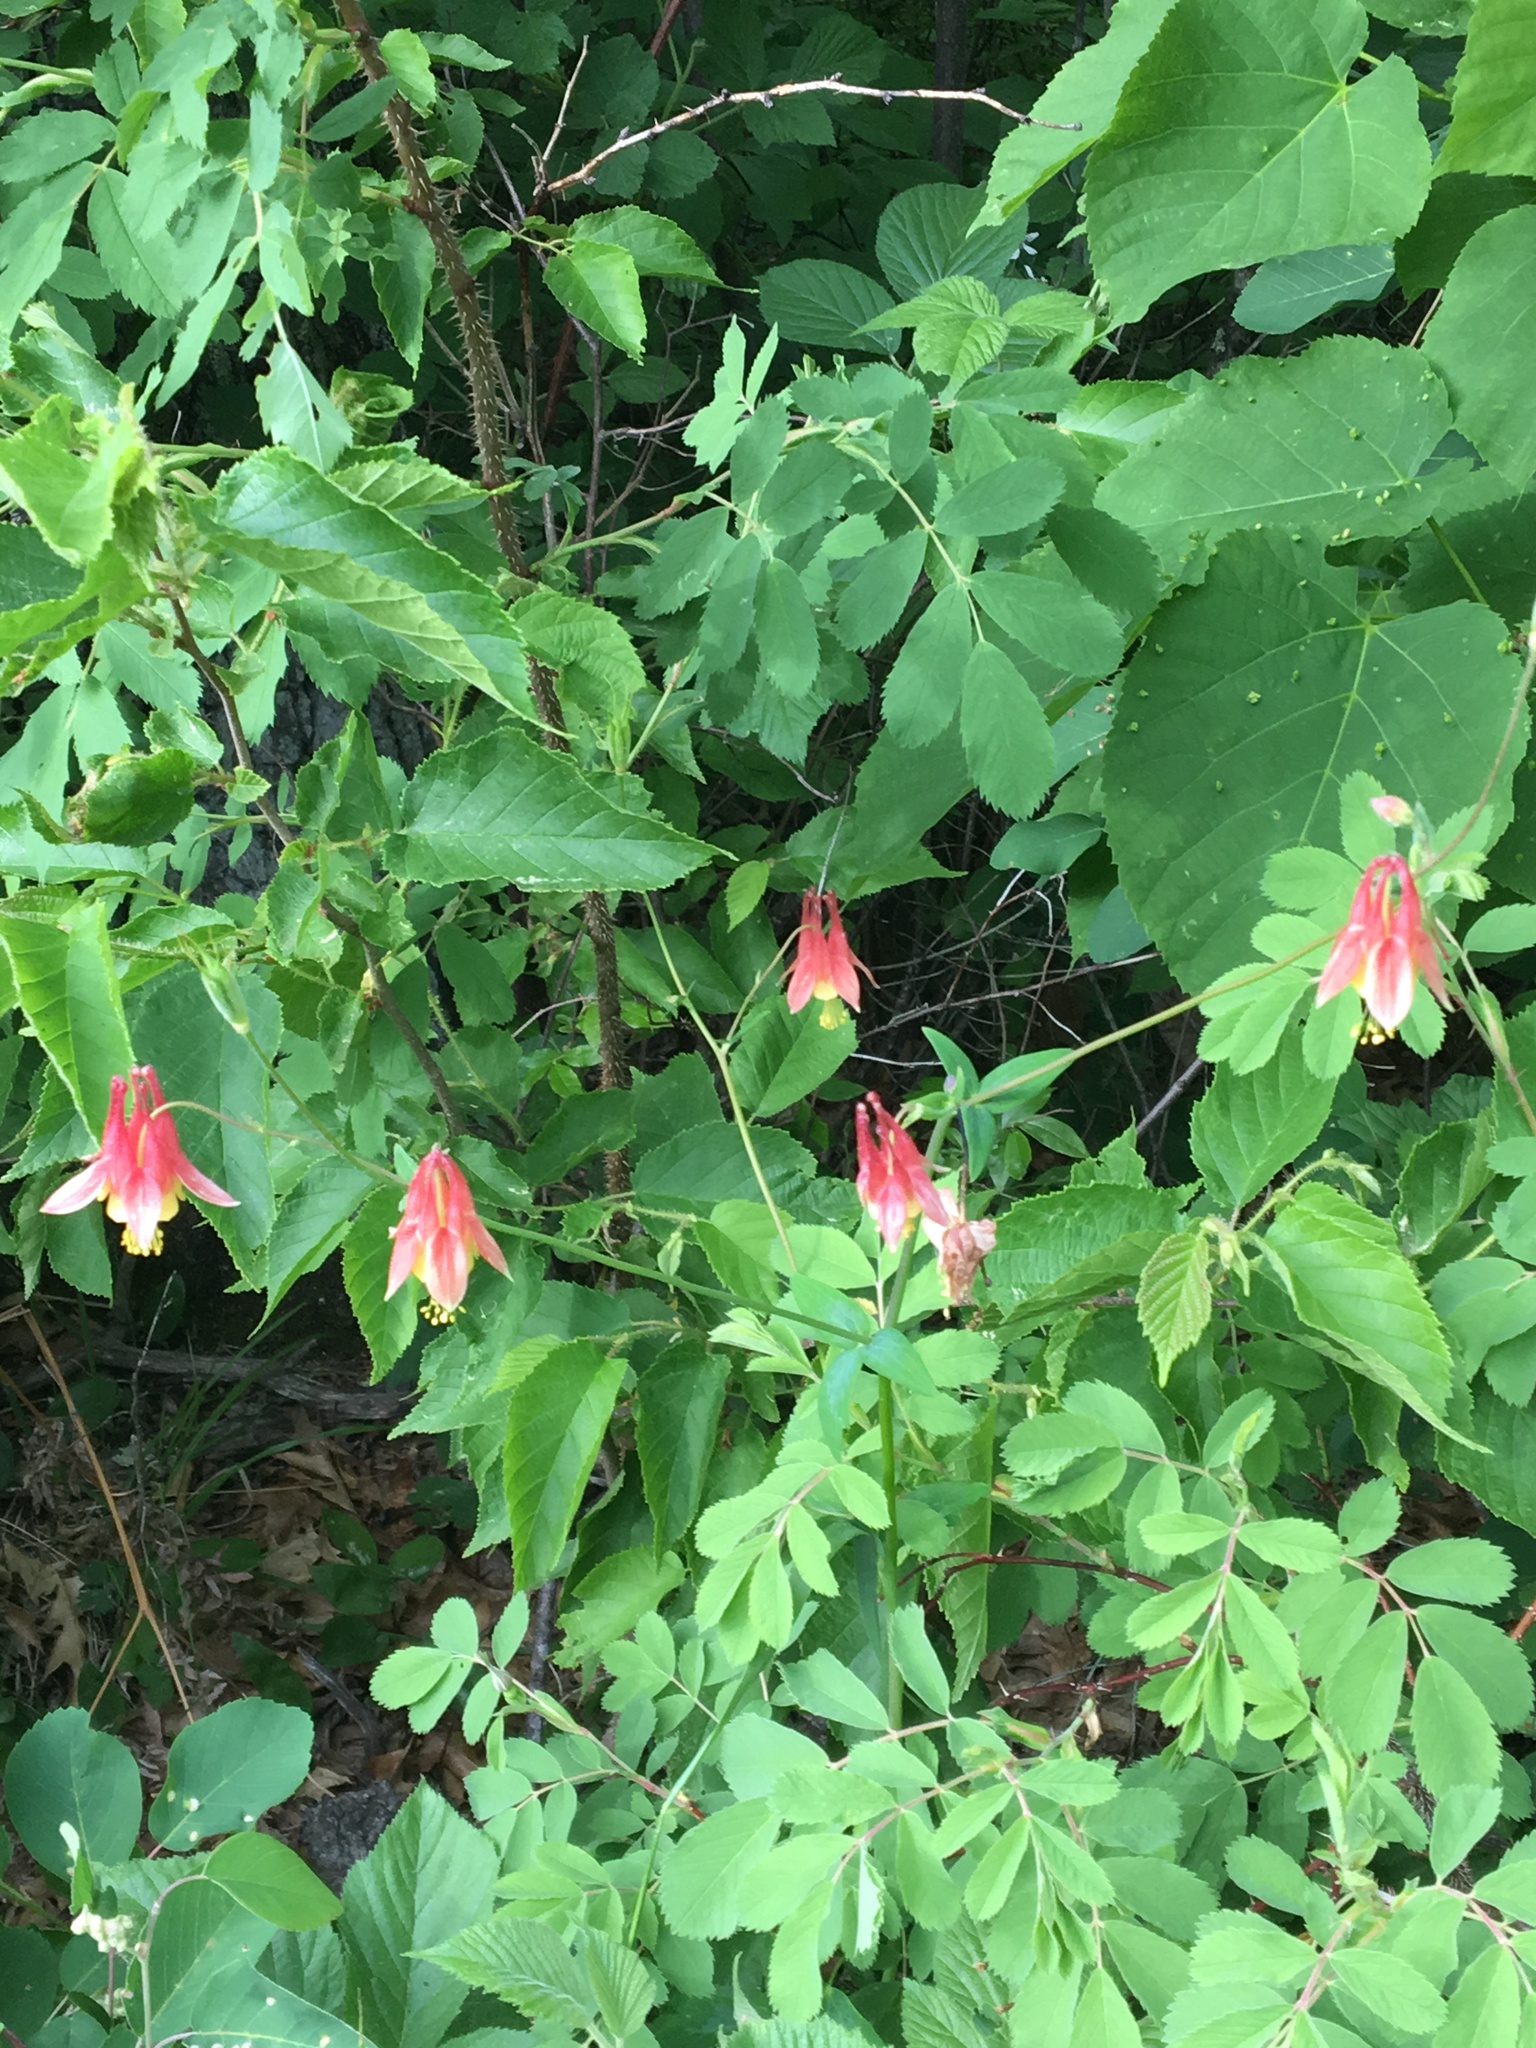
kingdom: Plantae
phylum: Tracheophyta
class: Magnoliopsida
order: Ranunculales
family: Ranunculaceae
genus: Aquilegia
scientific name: Aquilegia canadensis
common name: American columbine
